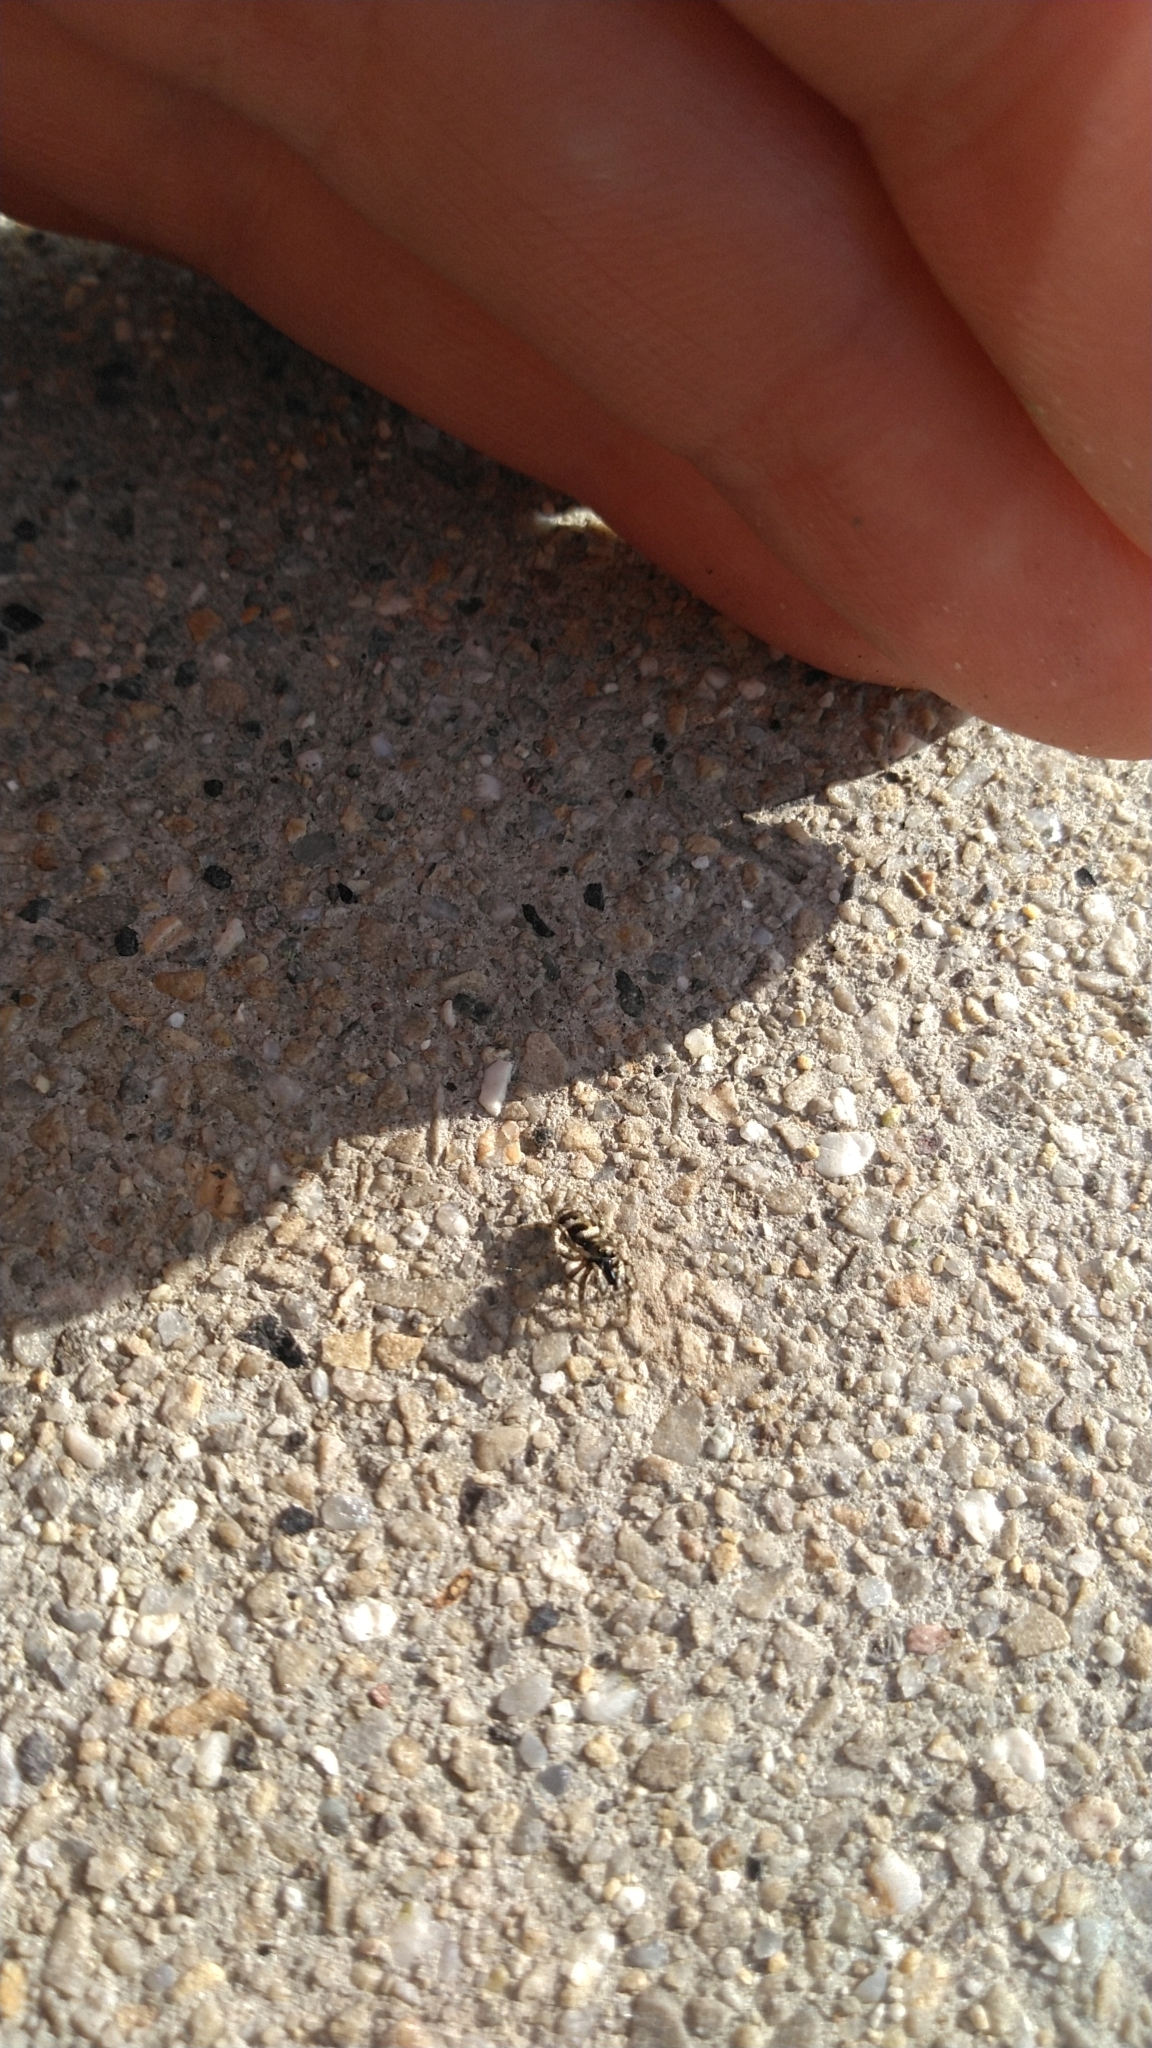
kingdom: Animalia
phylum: Arthropoda
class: Arachnida
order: Araneae
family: Salticidae
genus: Salticus
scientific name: Salticus scenicus
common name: Zebra jumper
